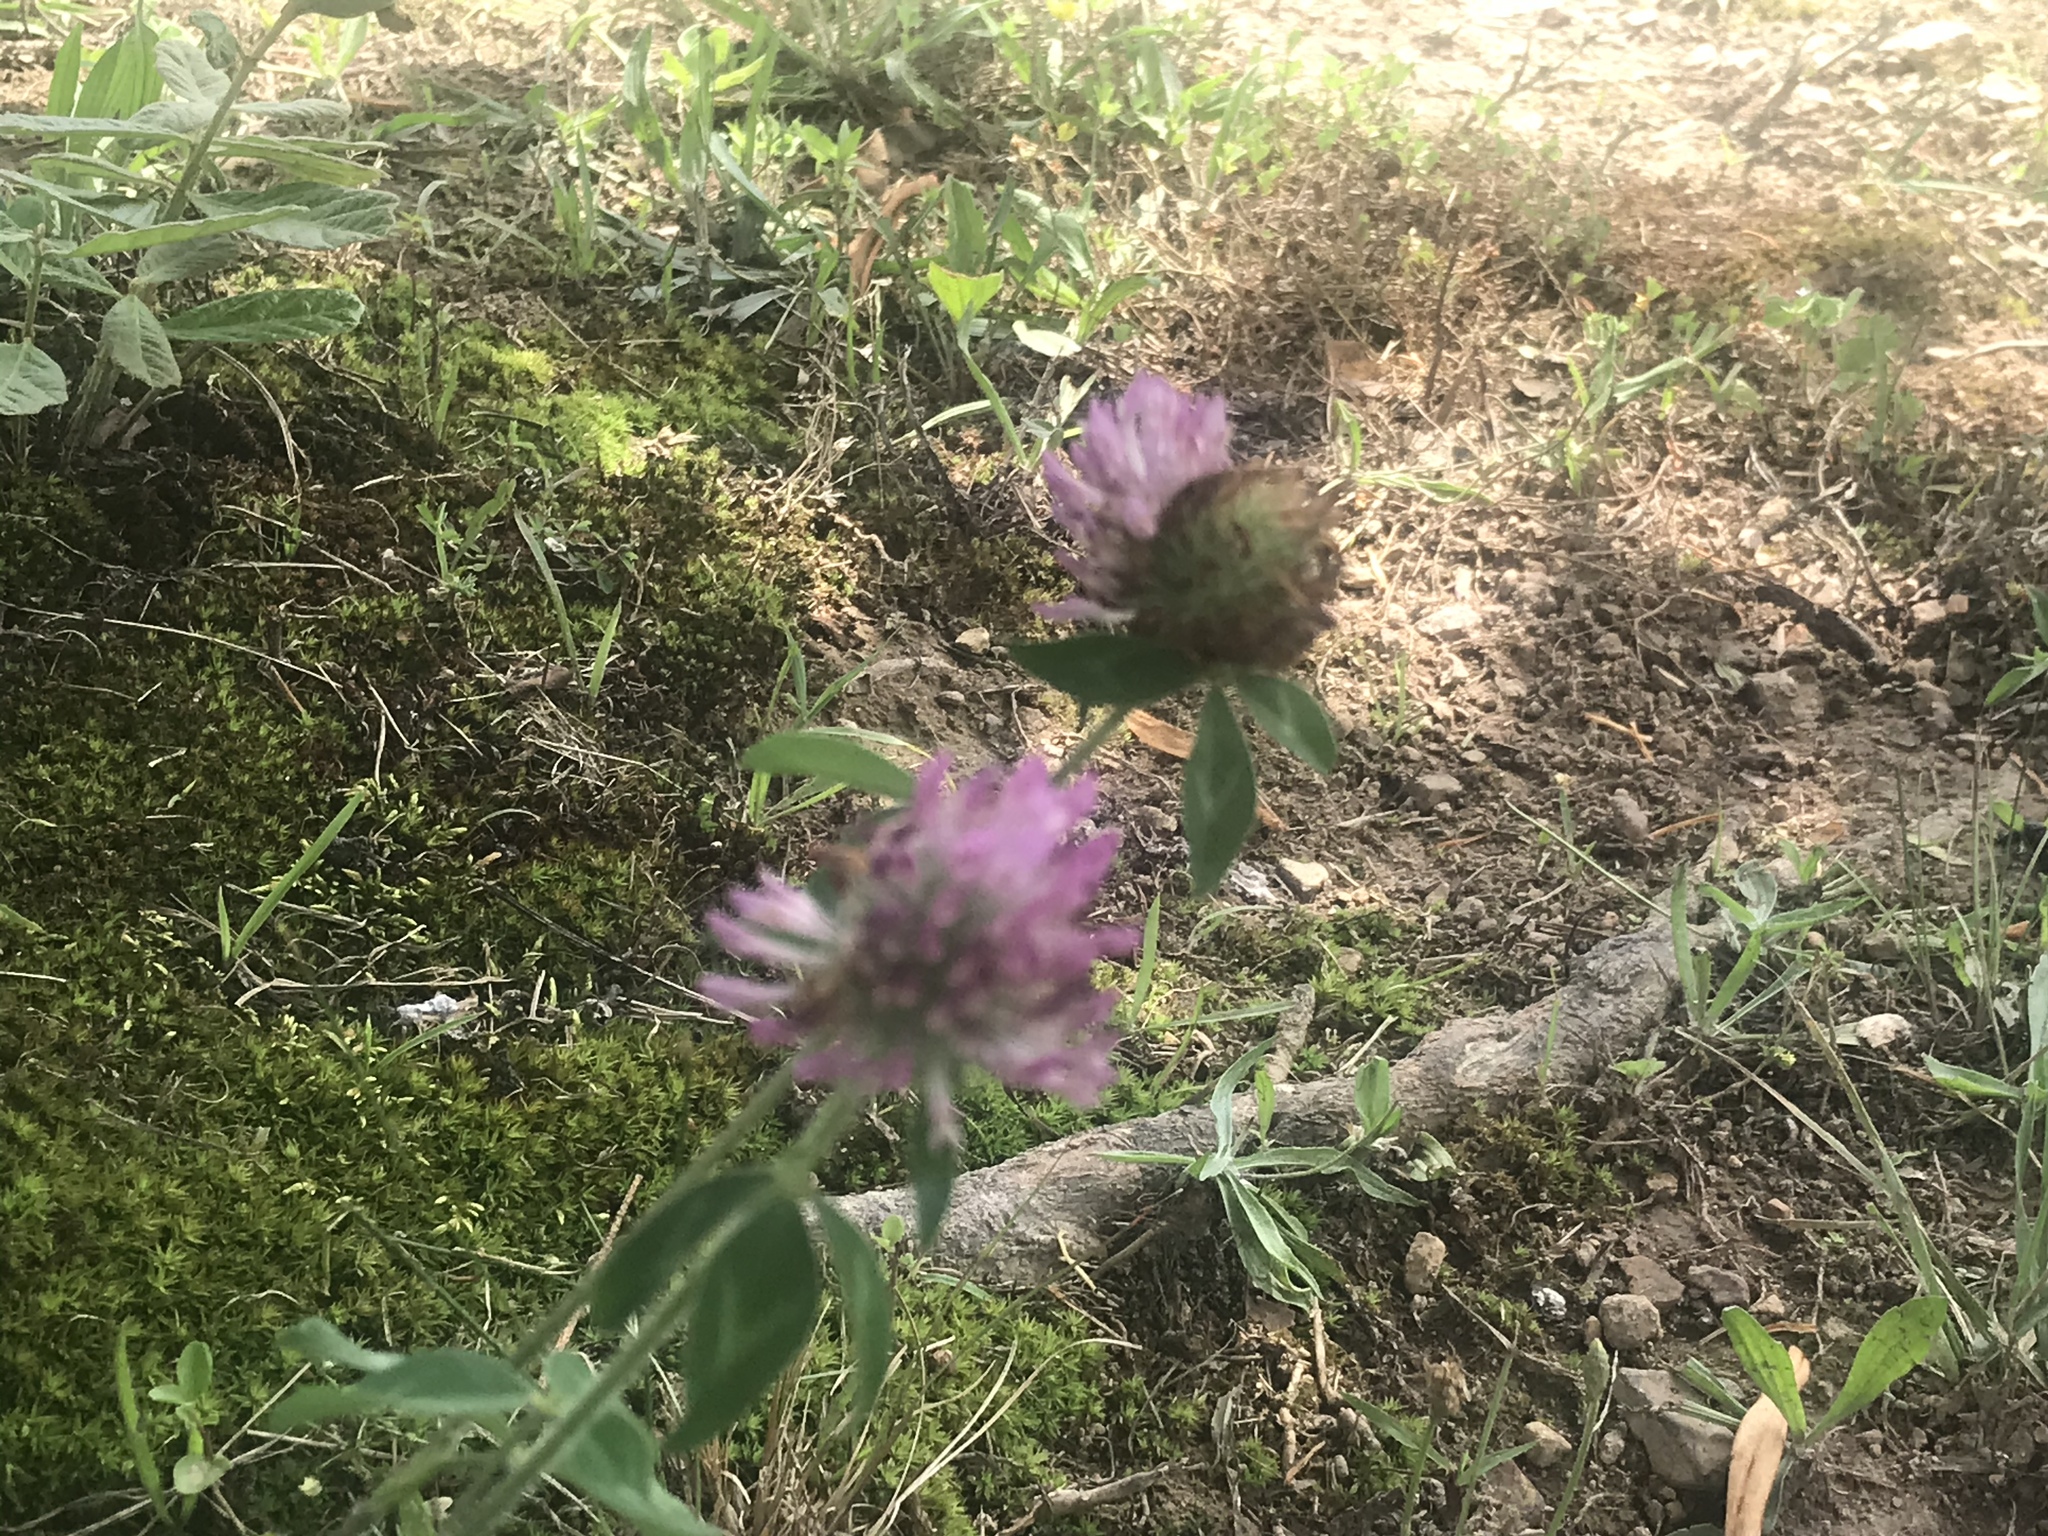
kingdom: Plantae
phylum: Tracheophyta
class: Magnoliopsida
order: Fabales
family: Fabaceae
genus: Trifolium
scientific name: Trifolium pratense
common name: Red clover
